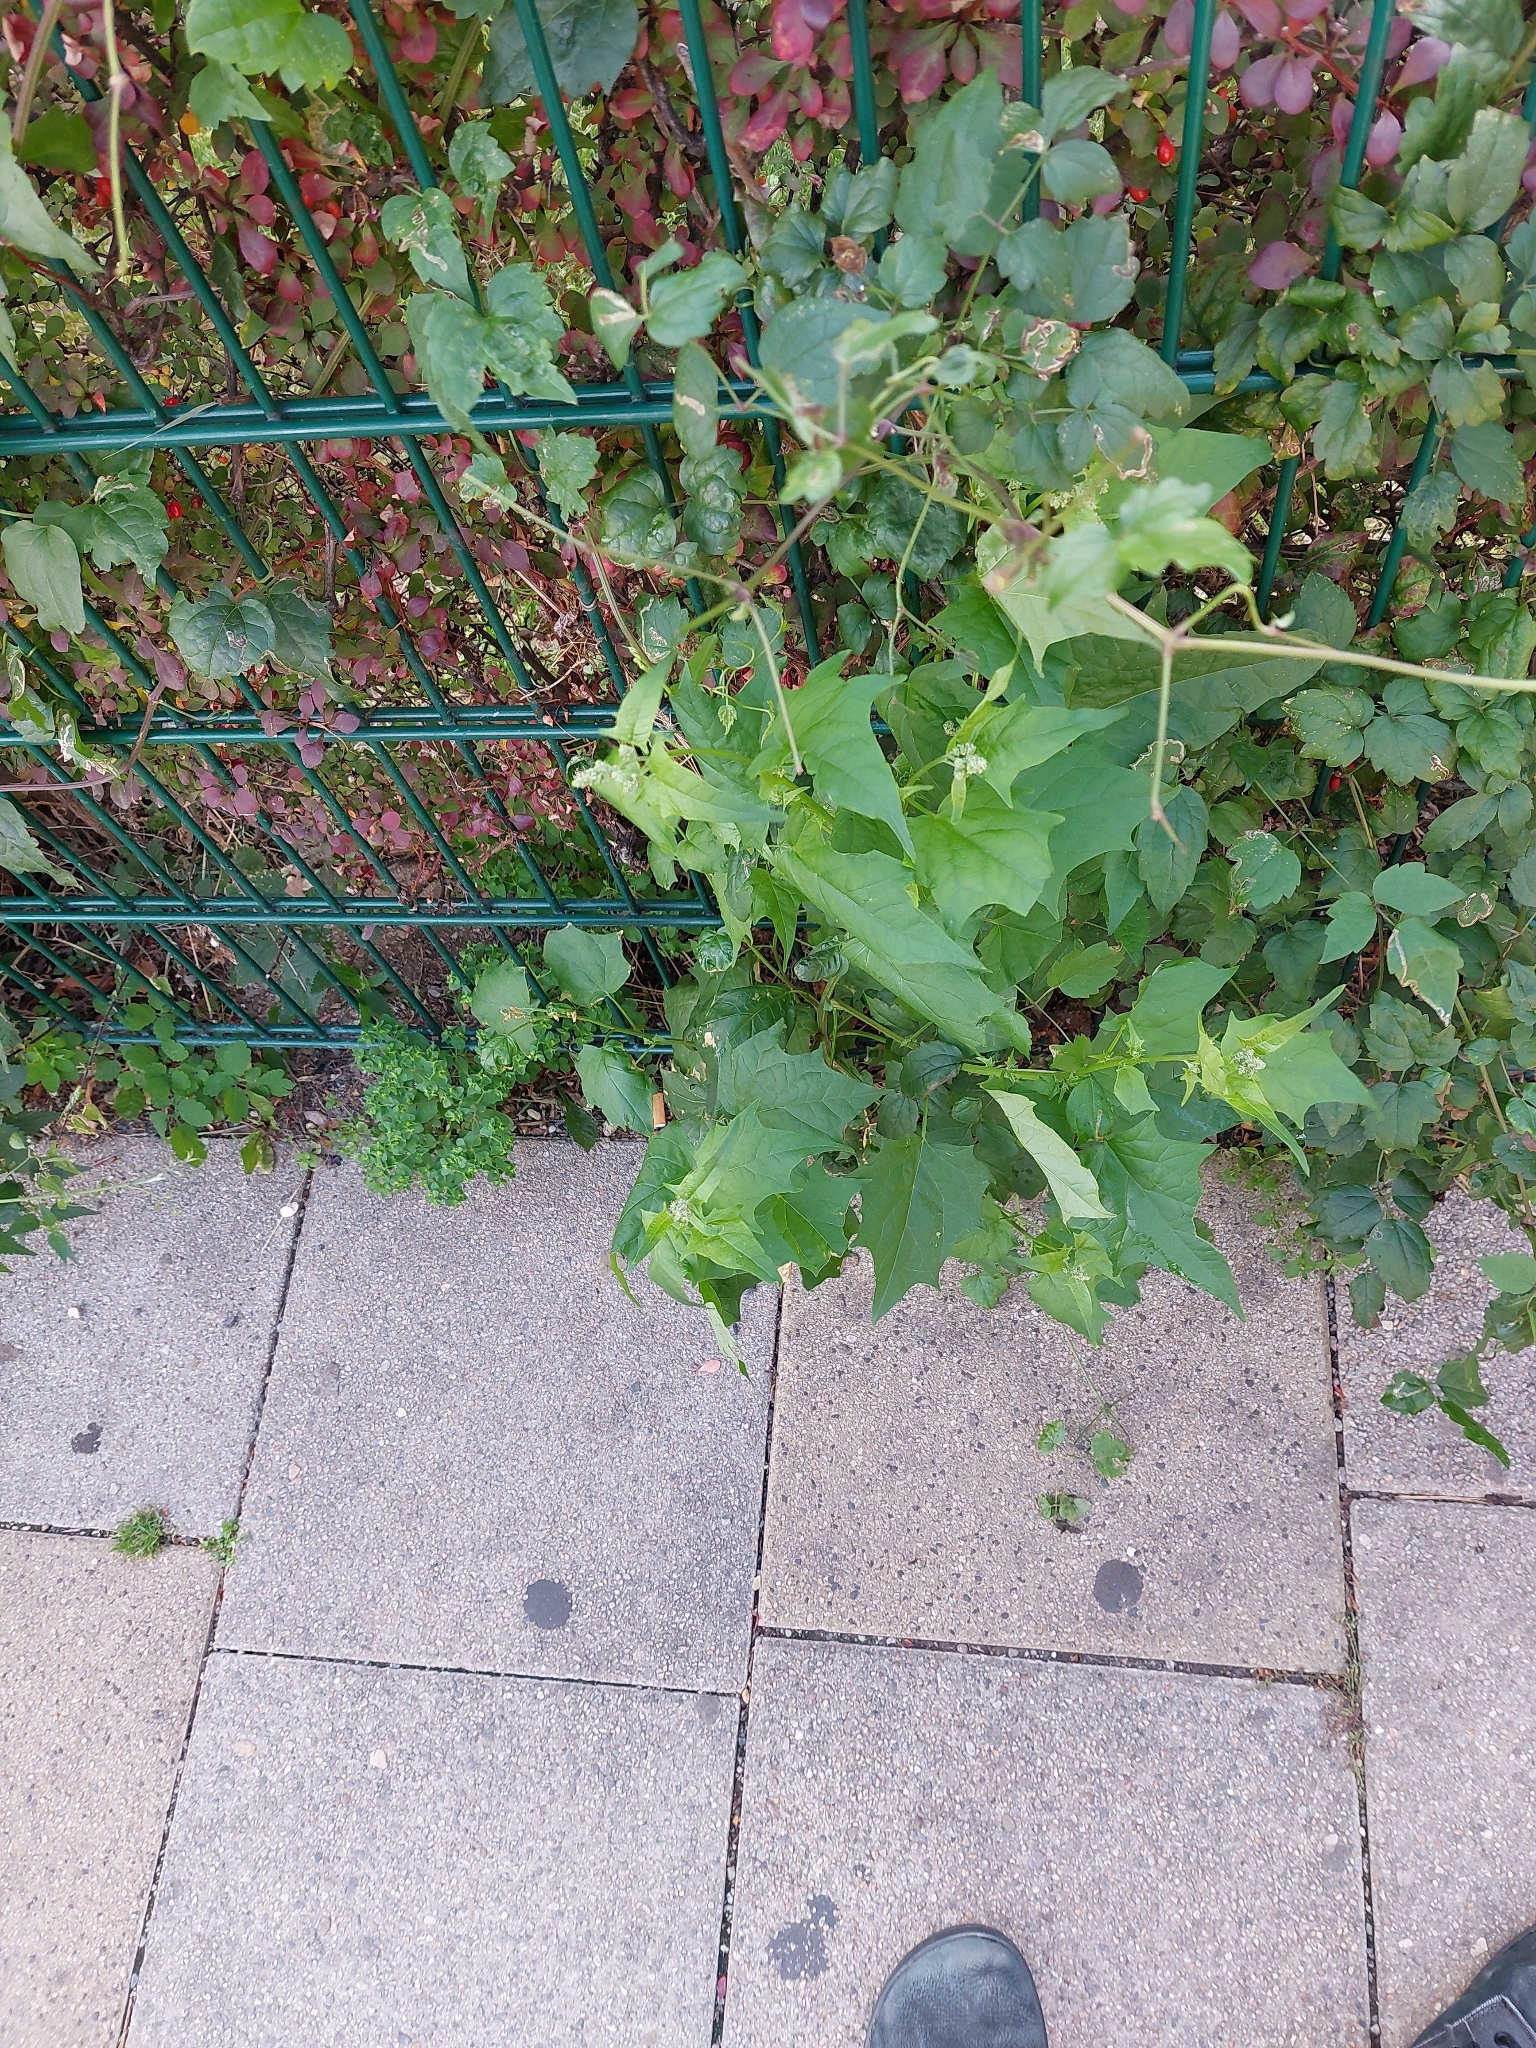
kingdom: Plantae
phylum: Tracheophyta
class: Magnoliopsida
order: Caryophyllales
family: Amaranthaceae
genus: Chenopodiastrum
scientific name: Chenopodiastrum hybridum
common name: Mapleleaf goosefoot
